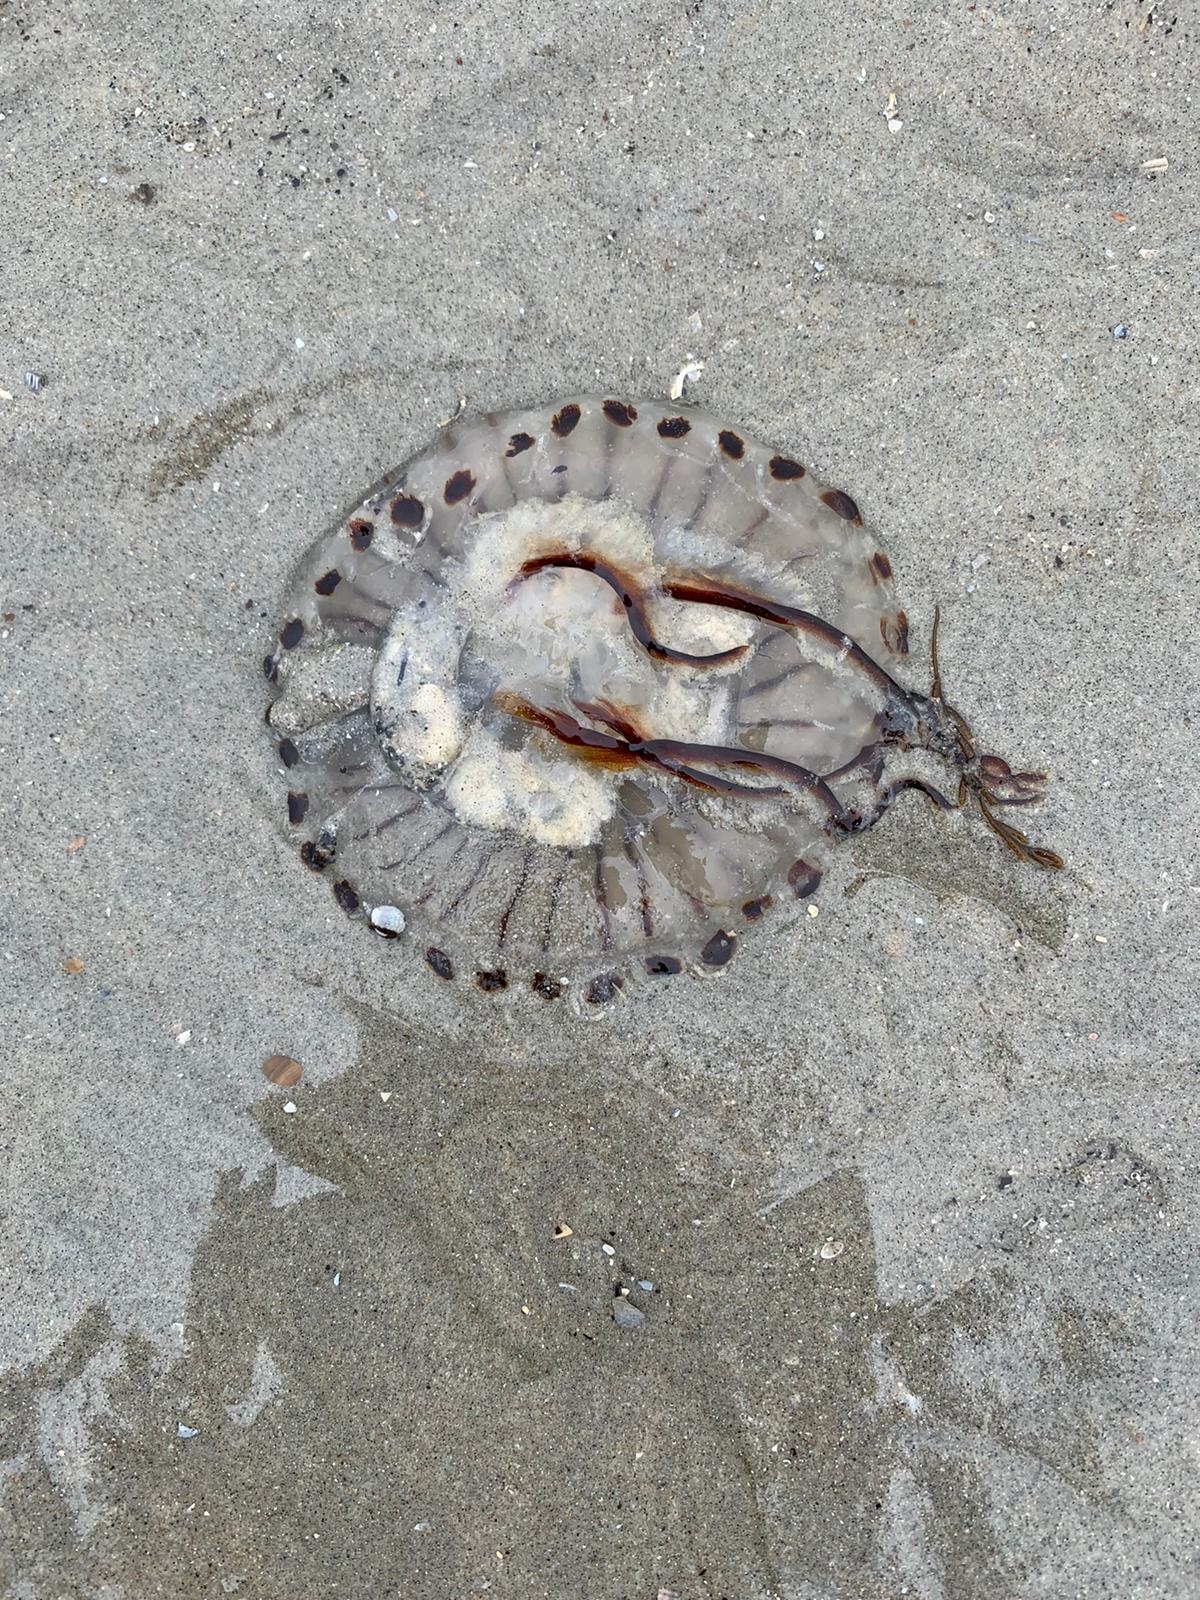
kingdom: Animalia
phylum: Cnidaria
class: Scyphozoa
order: Semaeostomeae
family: Pelagiidae
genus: Chrysaora
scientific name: Chrysaora hysoscella
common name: Compass jellyfish
